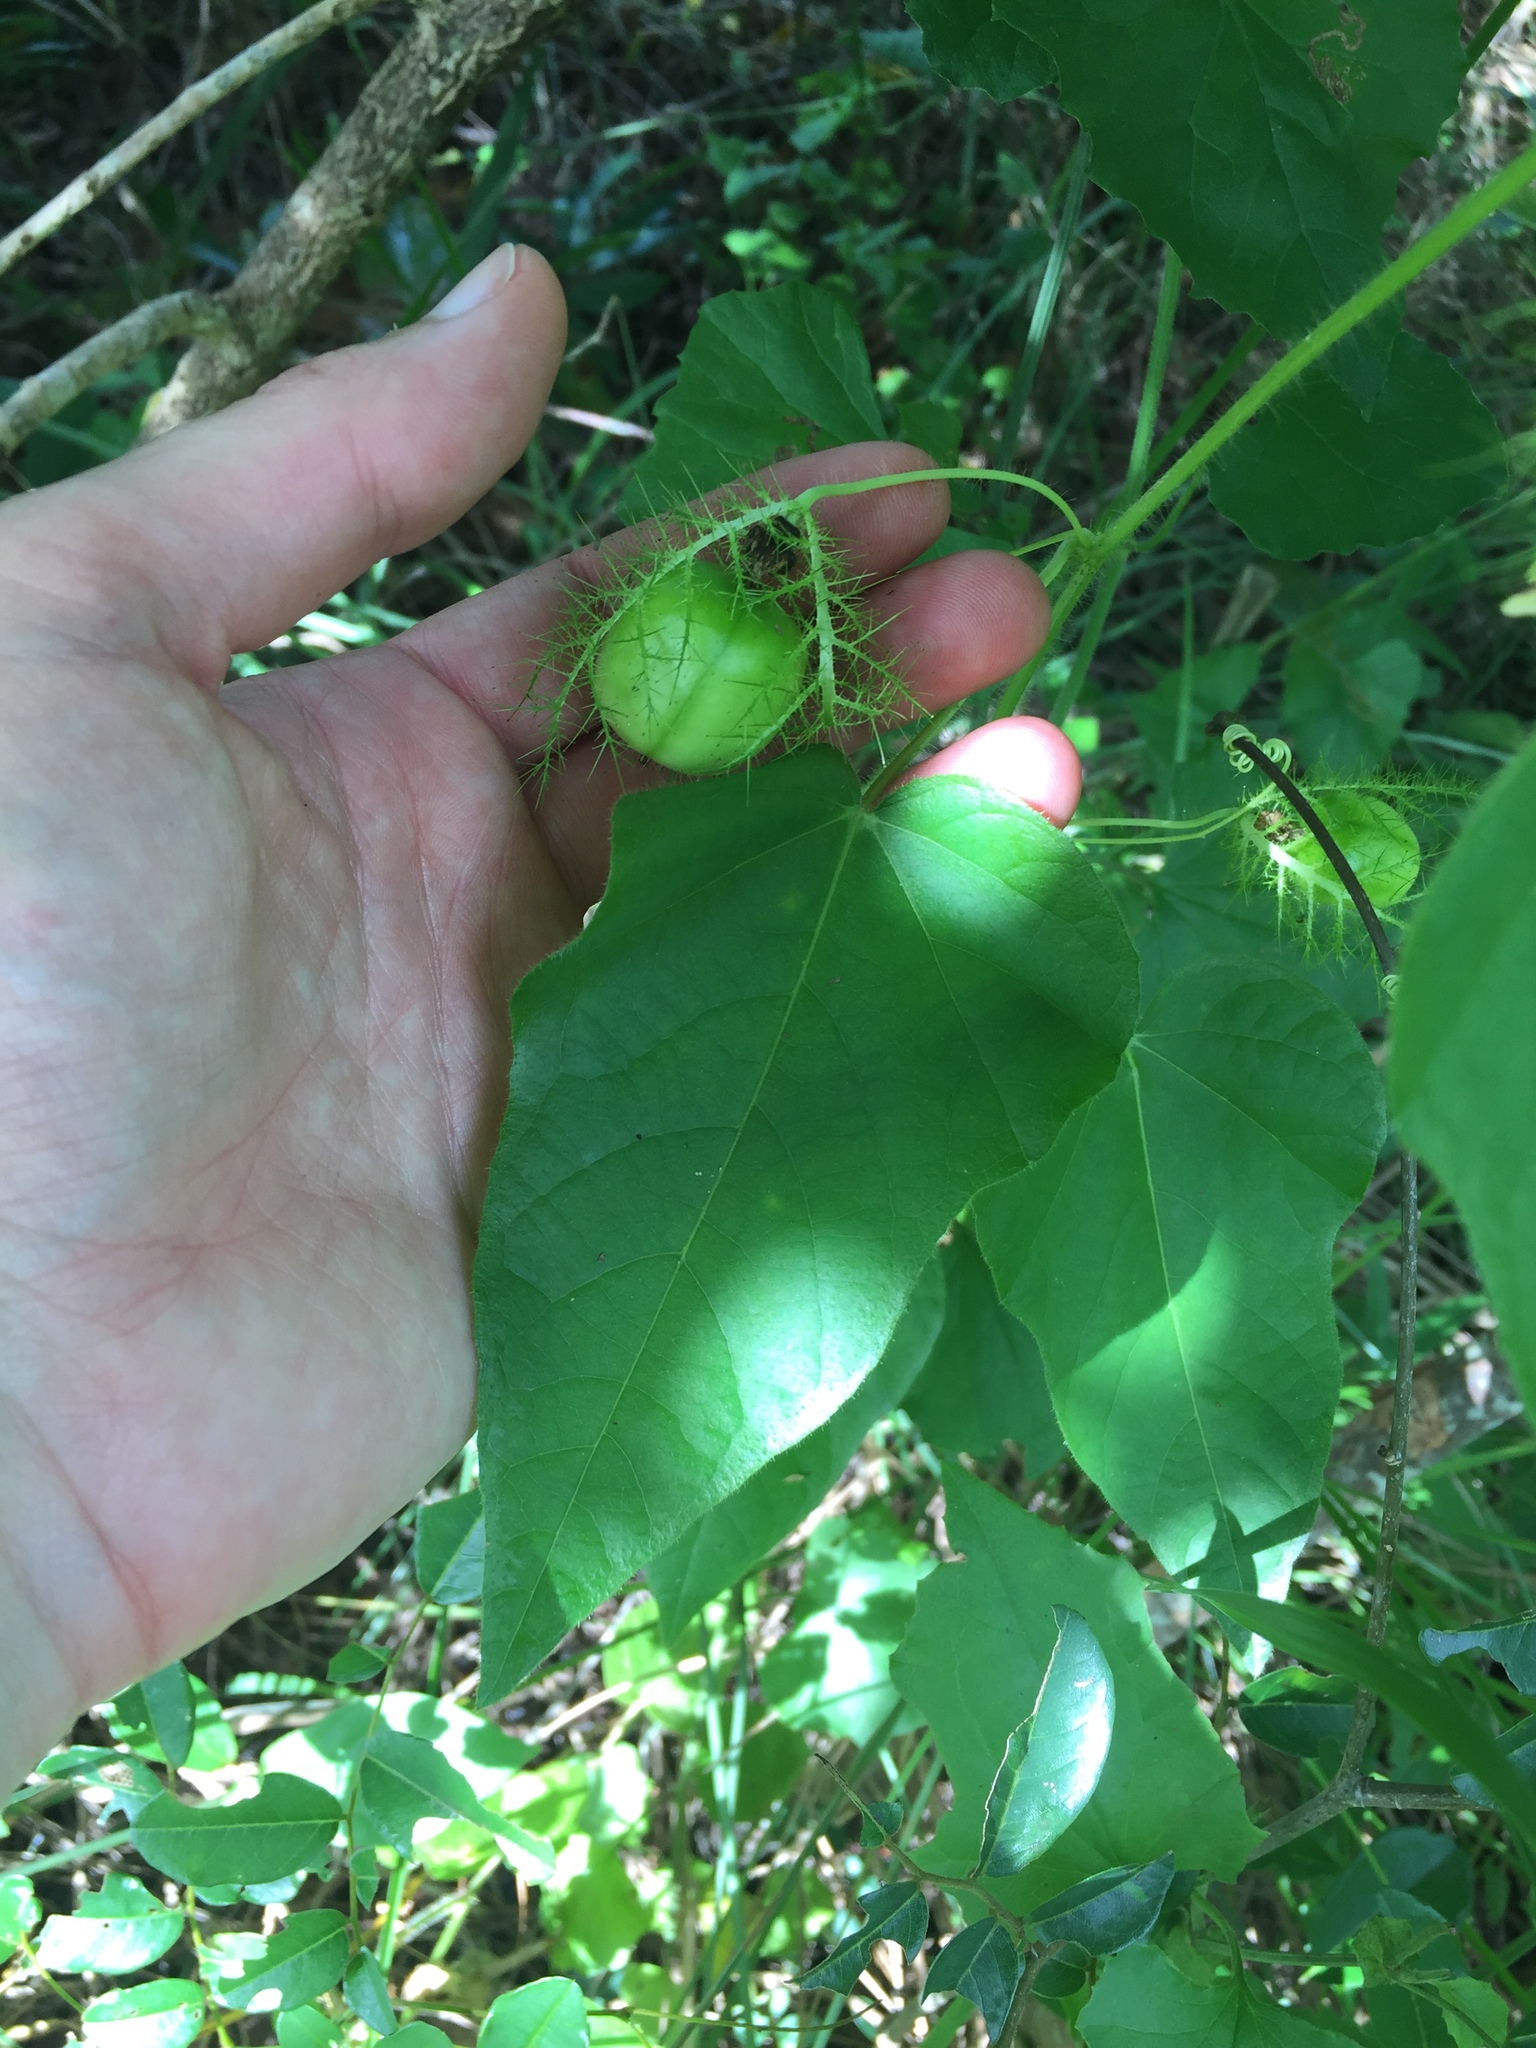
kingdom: Plantae
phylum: Tracheophyta
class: Magnoliopsida
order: Malpighiales
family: Passifloraceae
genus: Passiflora
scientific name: Passiflora foetida
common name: Fetid passionflower
